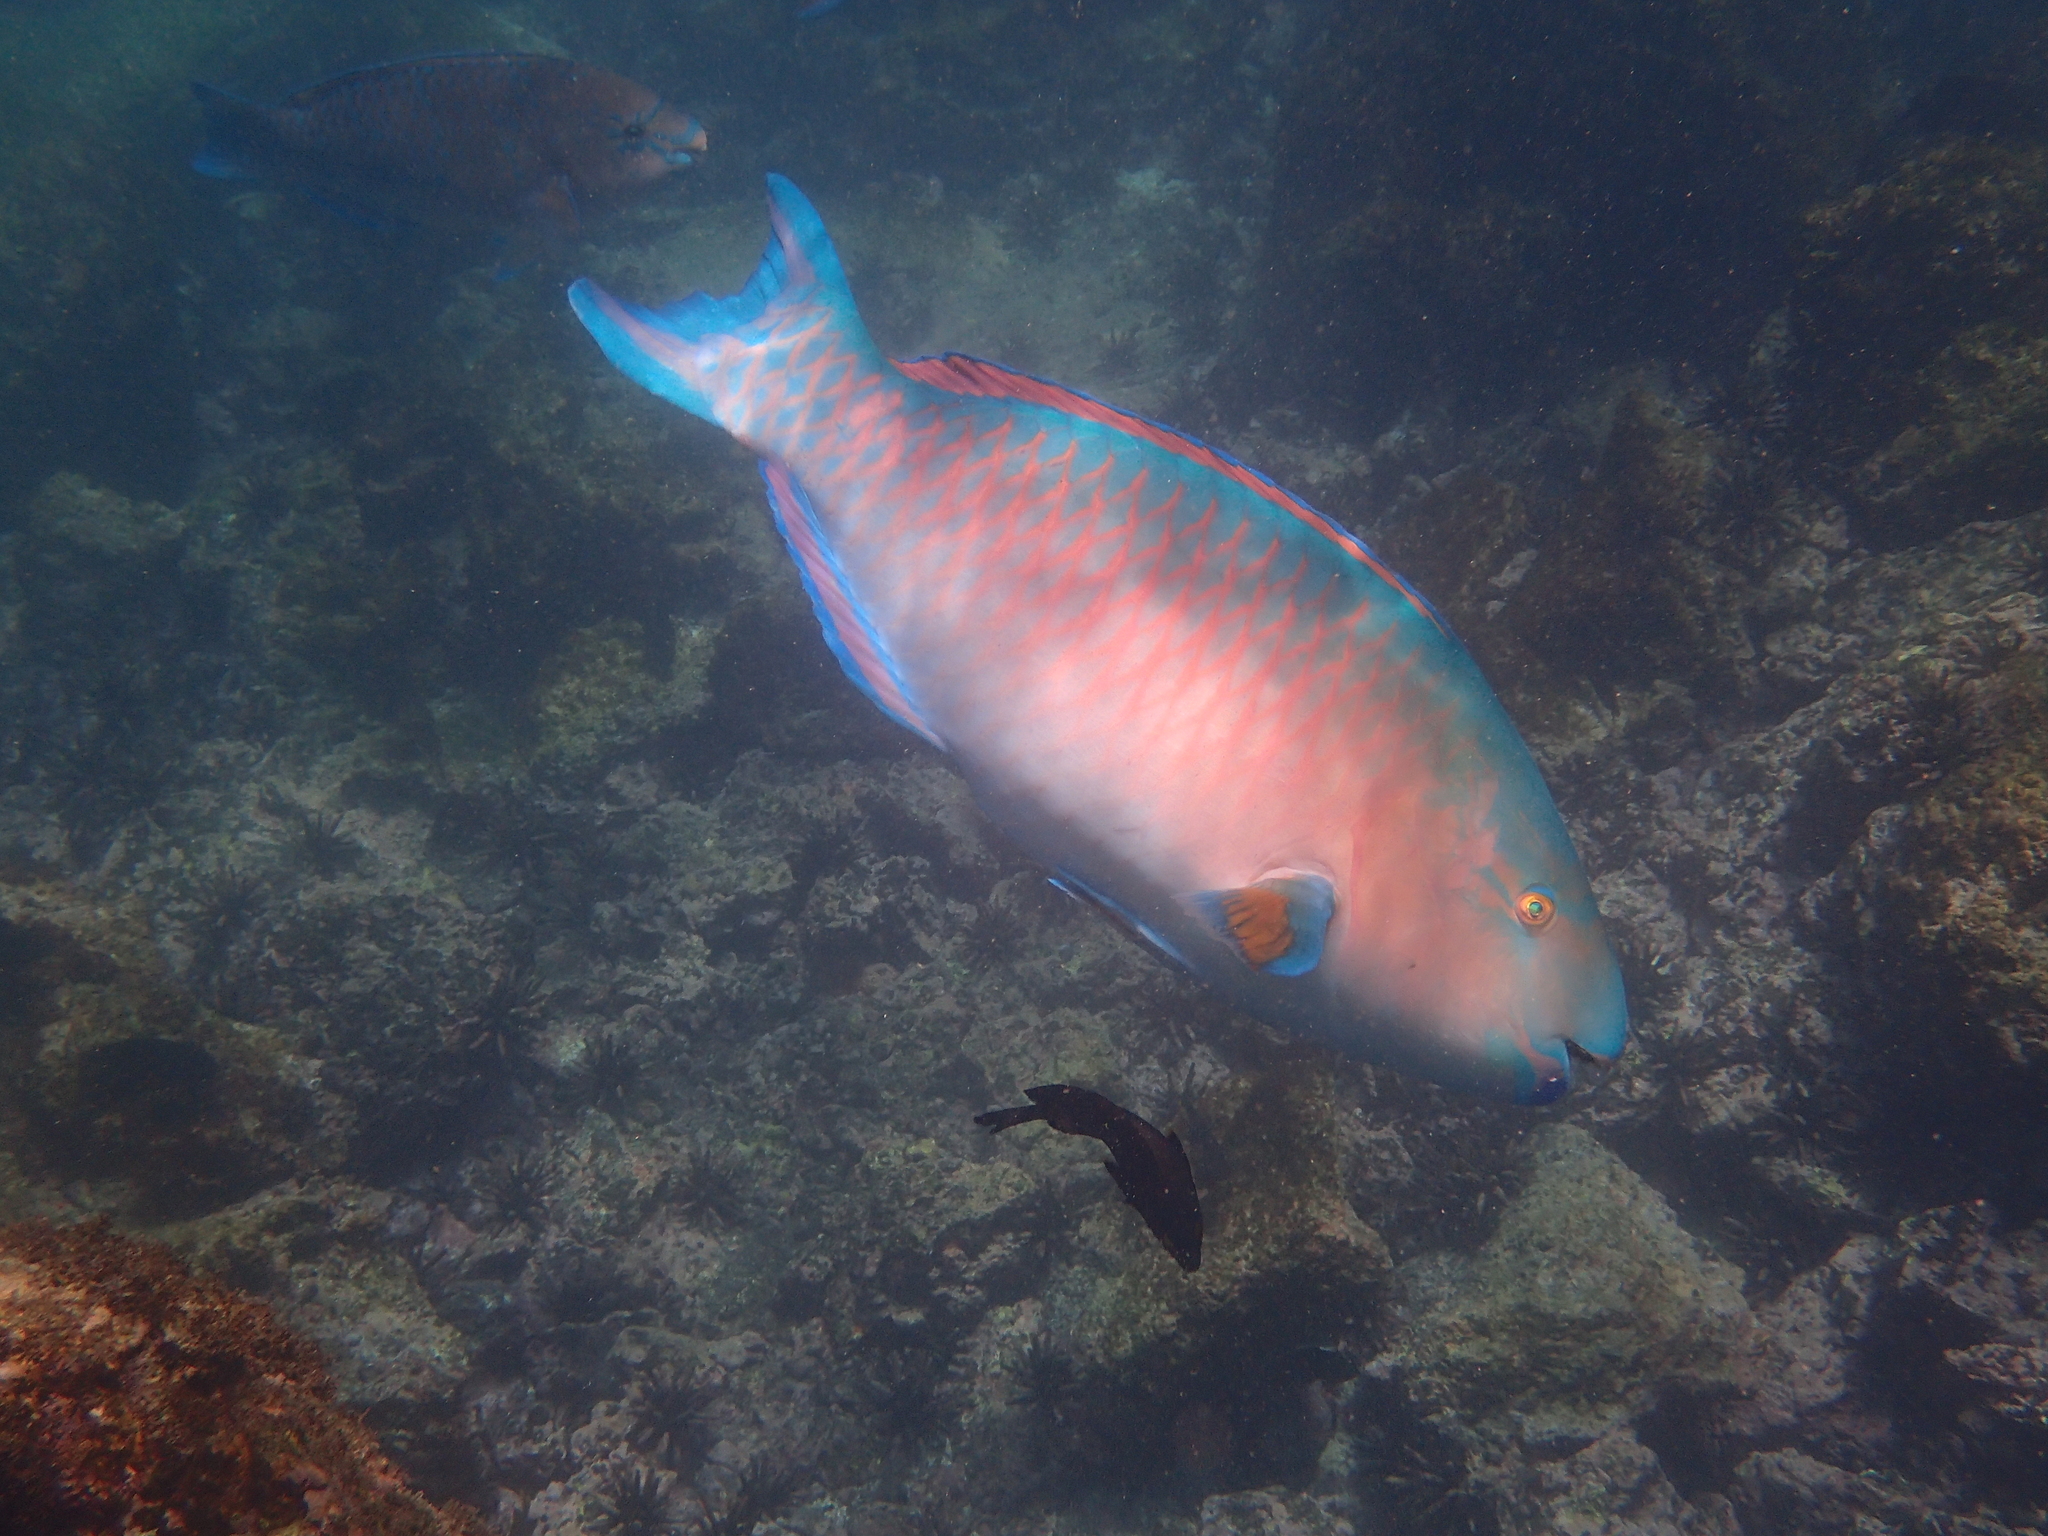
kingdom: Animalia
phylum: Chordata
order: Perciformes
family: Scaridae
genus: Scarus
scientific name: Scarus ghobban
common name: Blue-barred parrotfish
